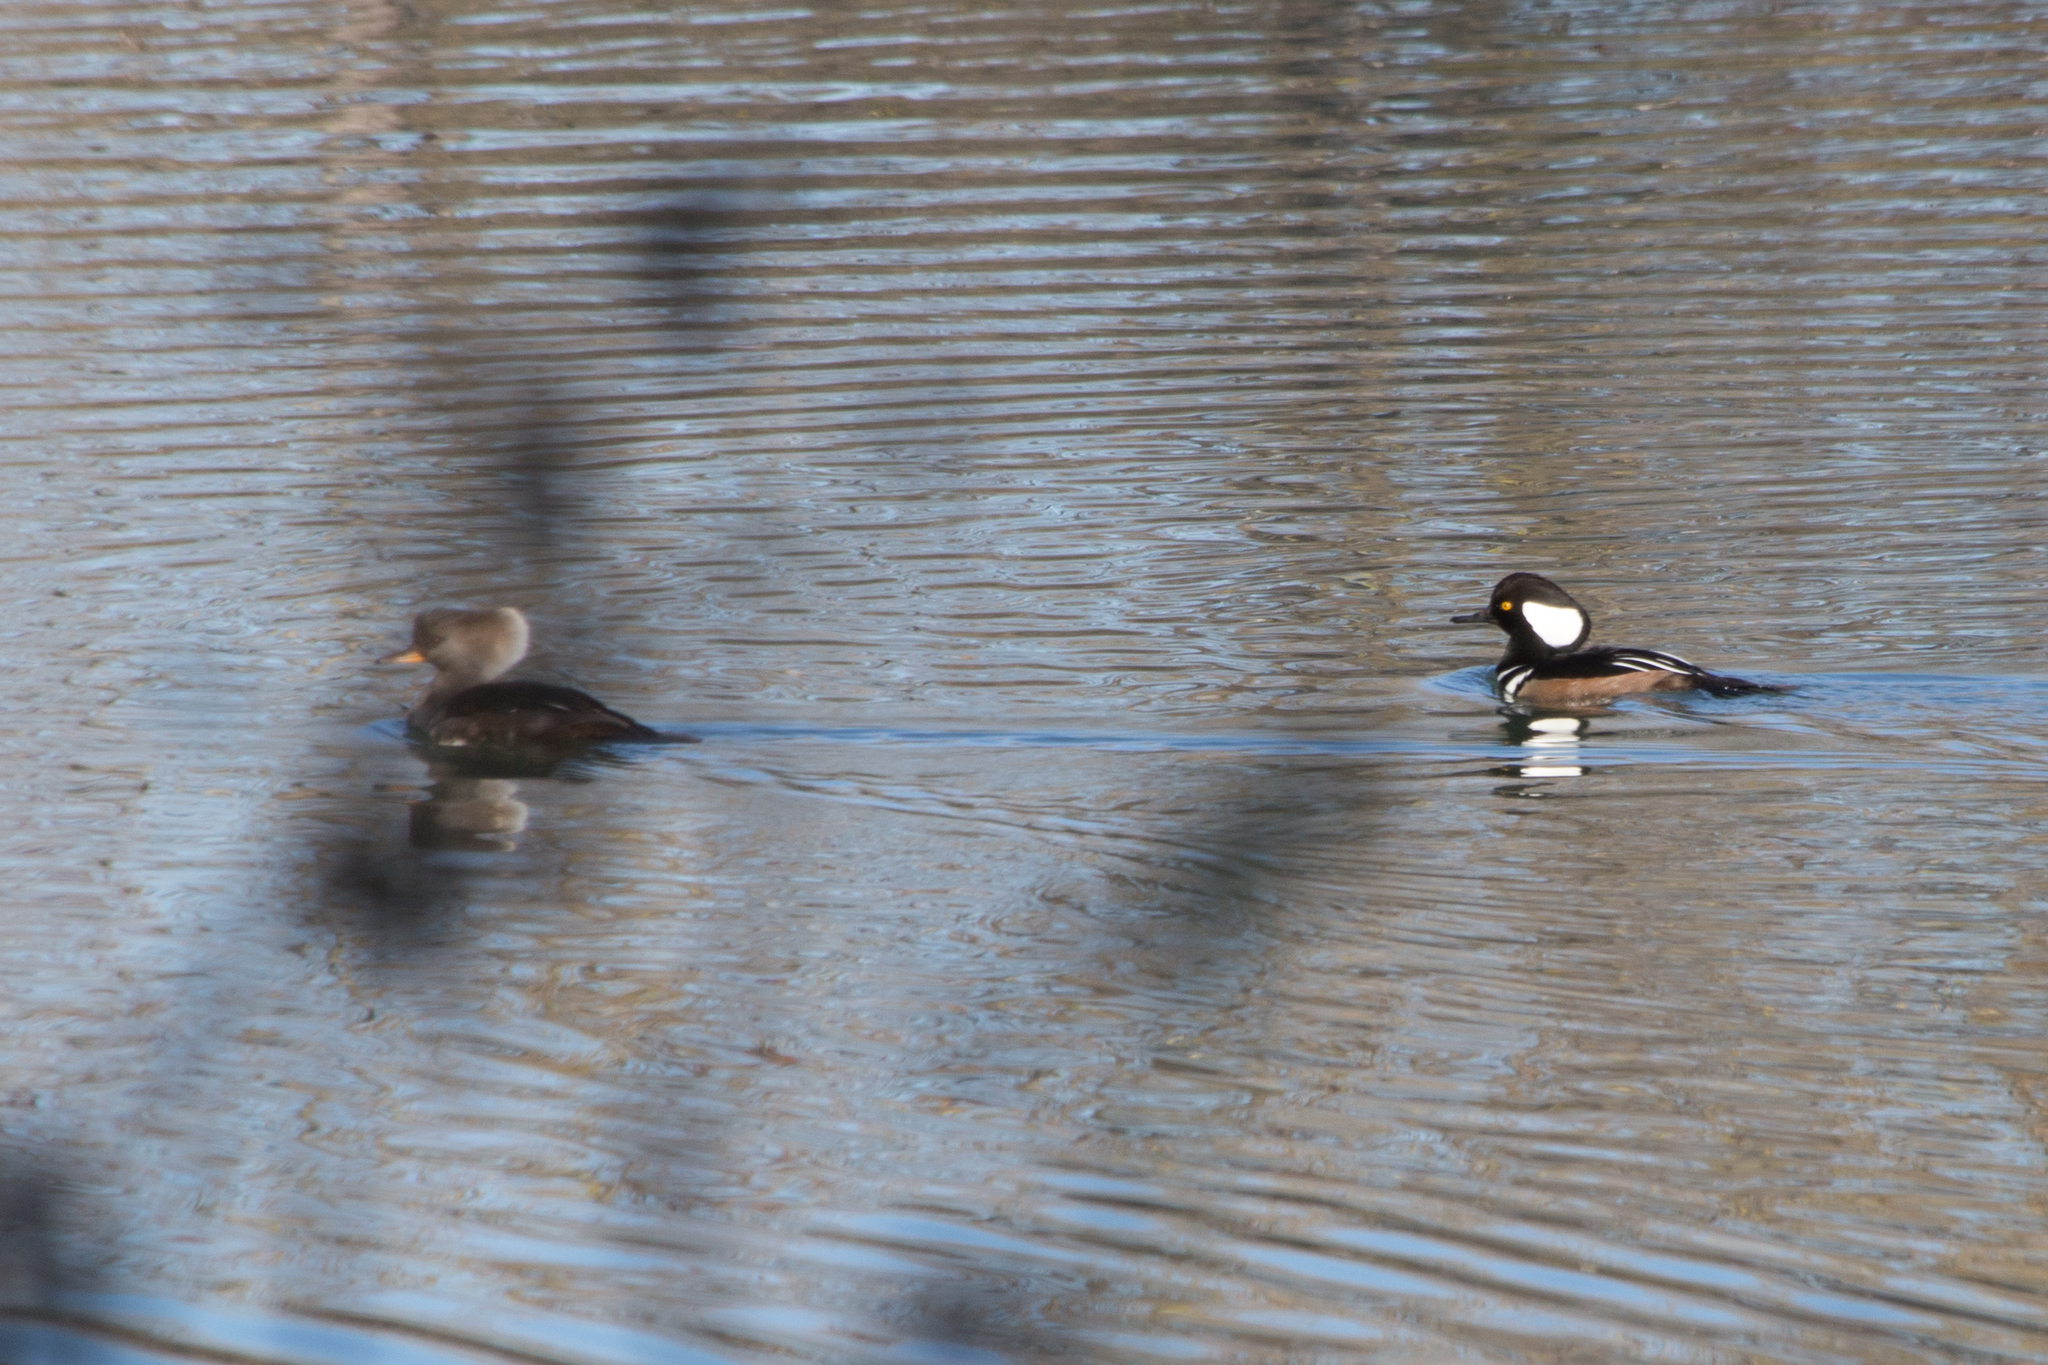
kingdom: Animalia
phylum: Chordata
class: Aves
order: Anseriformes
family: Anatidae
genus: Lophodytes
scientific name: Lophodytes cucullatus
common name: Hooded merganser
